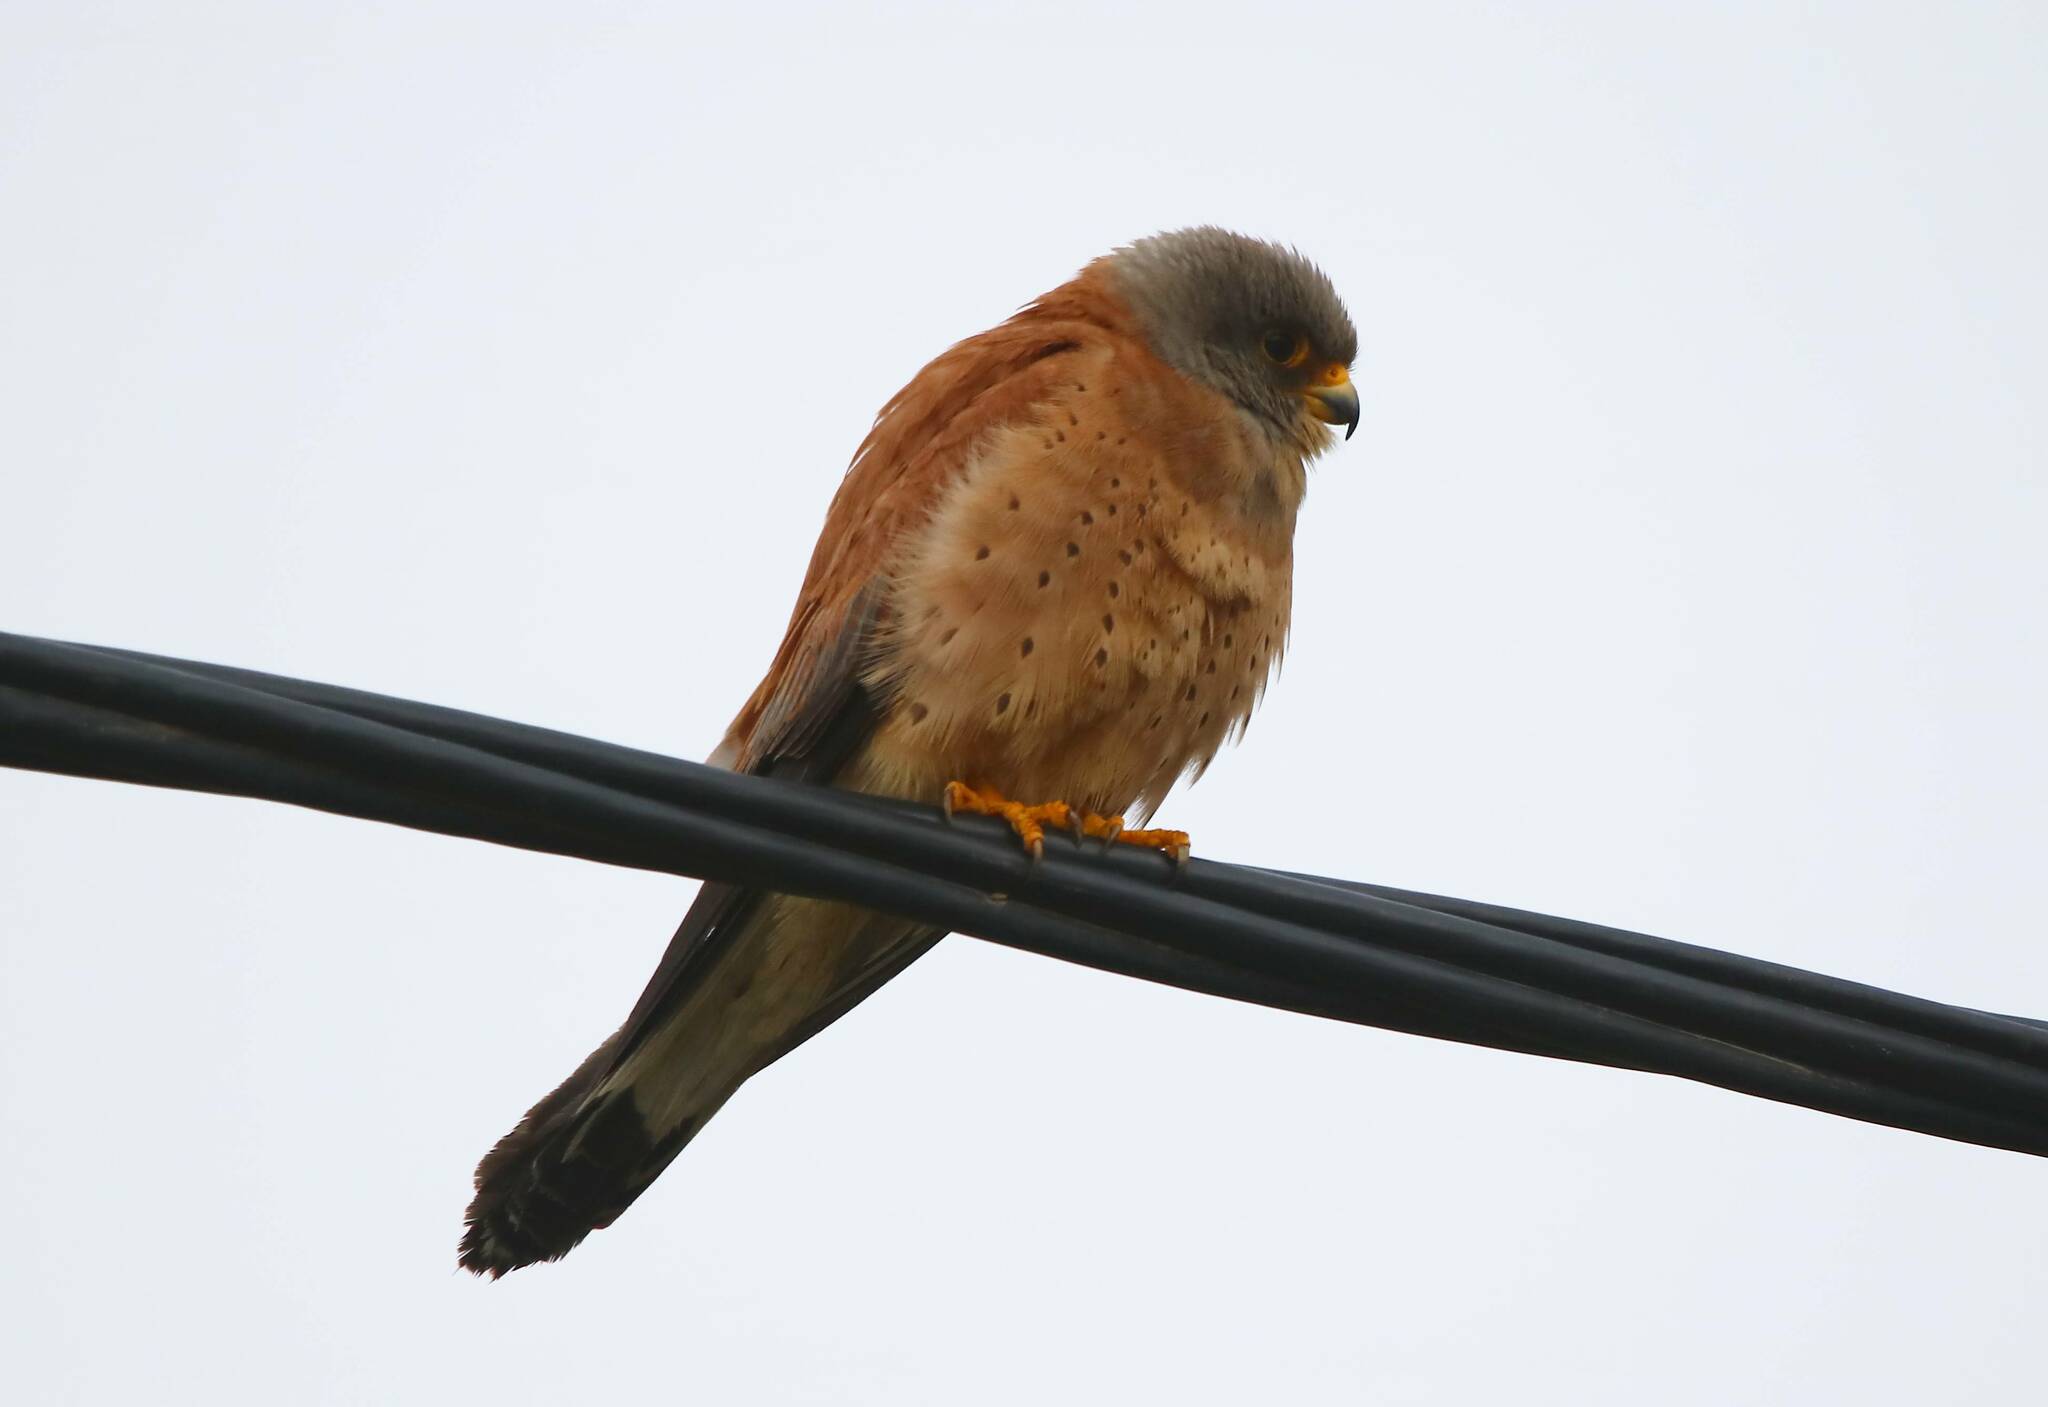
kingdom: Animalia
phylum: Chordata
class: Aves
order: Falconiformes
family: Falconidae
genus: Falco
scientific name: Falco naumanni
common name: Lesser kestrel
